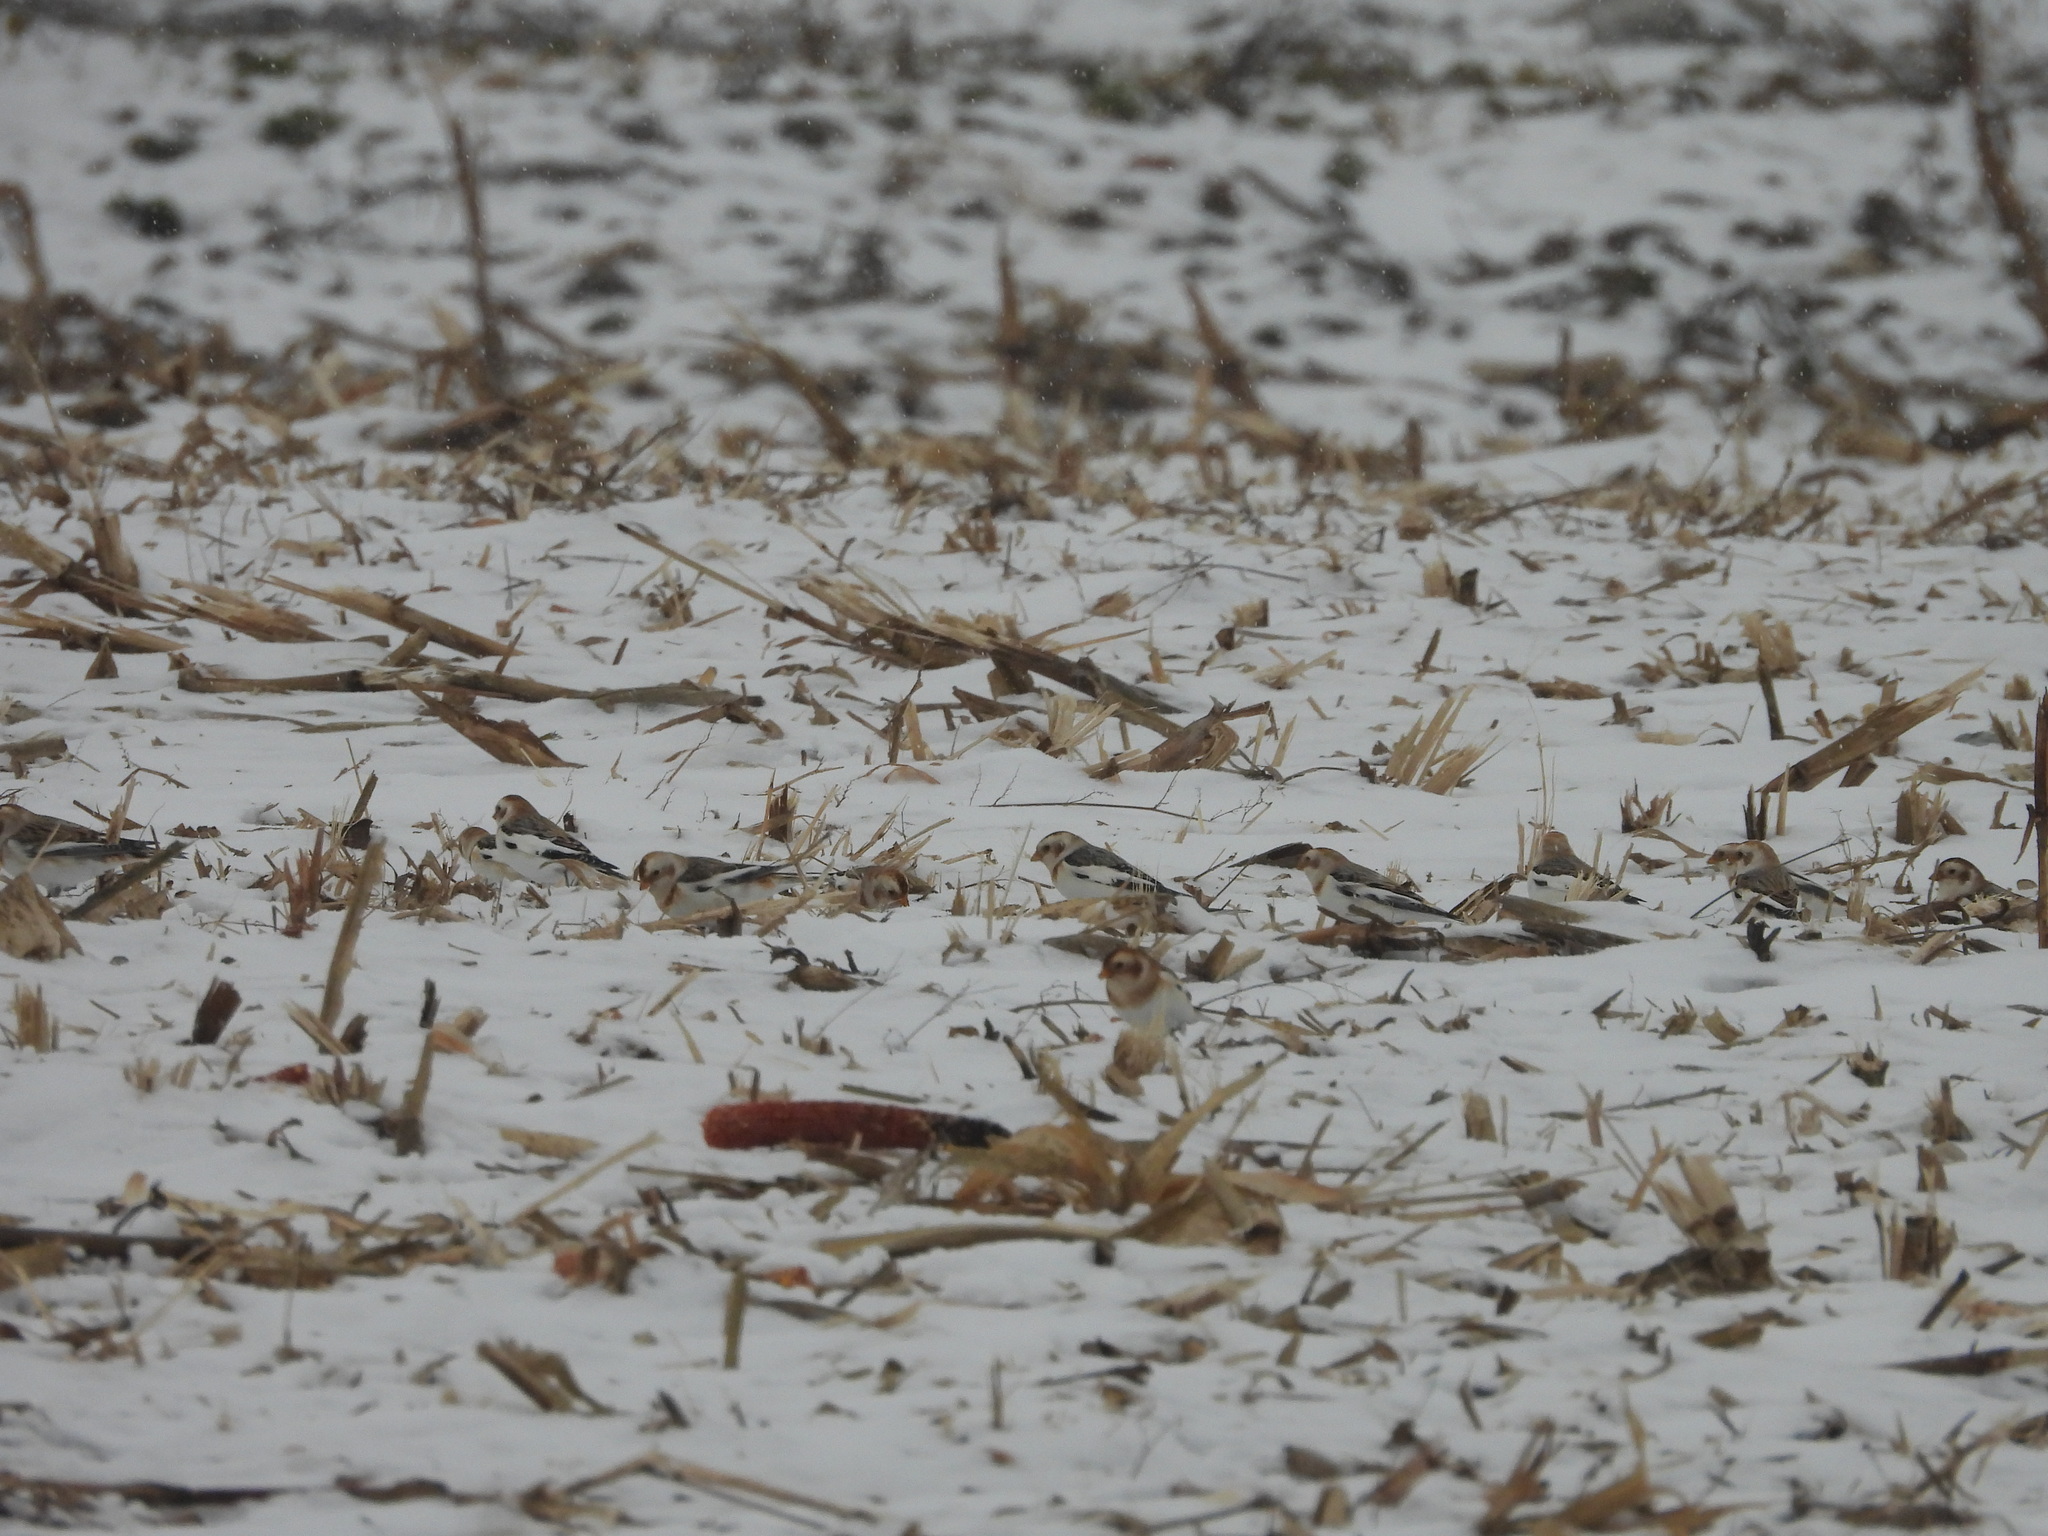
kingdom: Animalia
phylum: Chordata
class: Aves
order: Passeriformes
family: Calcariidae
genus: Plectrophenax
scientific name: Plectrophenax nivalis
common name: Snow bunting
